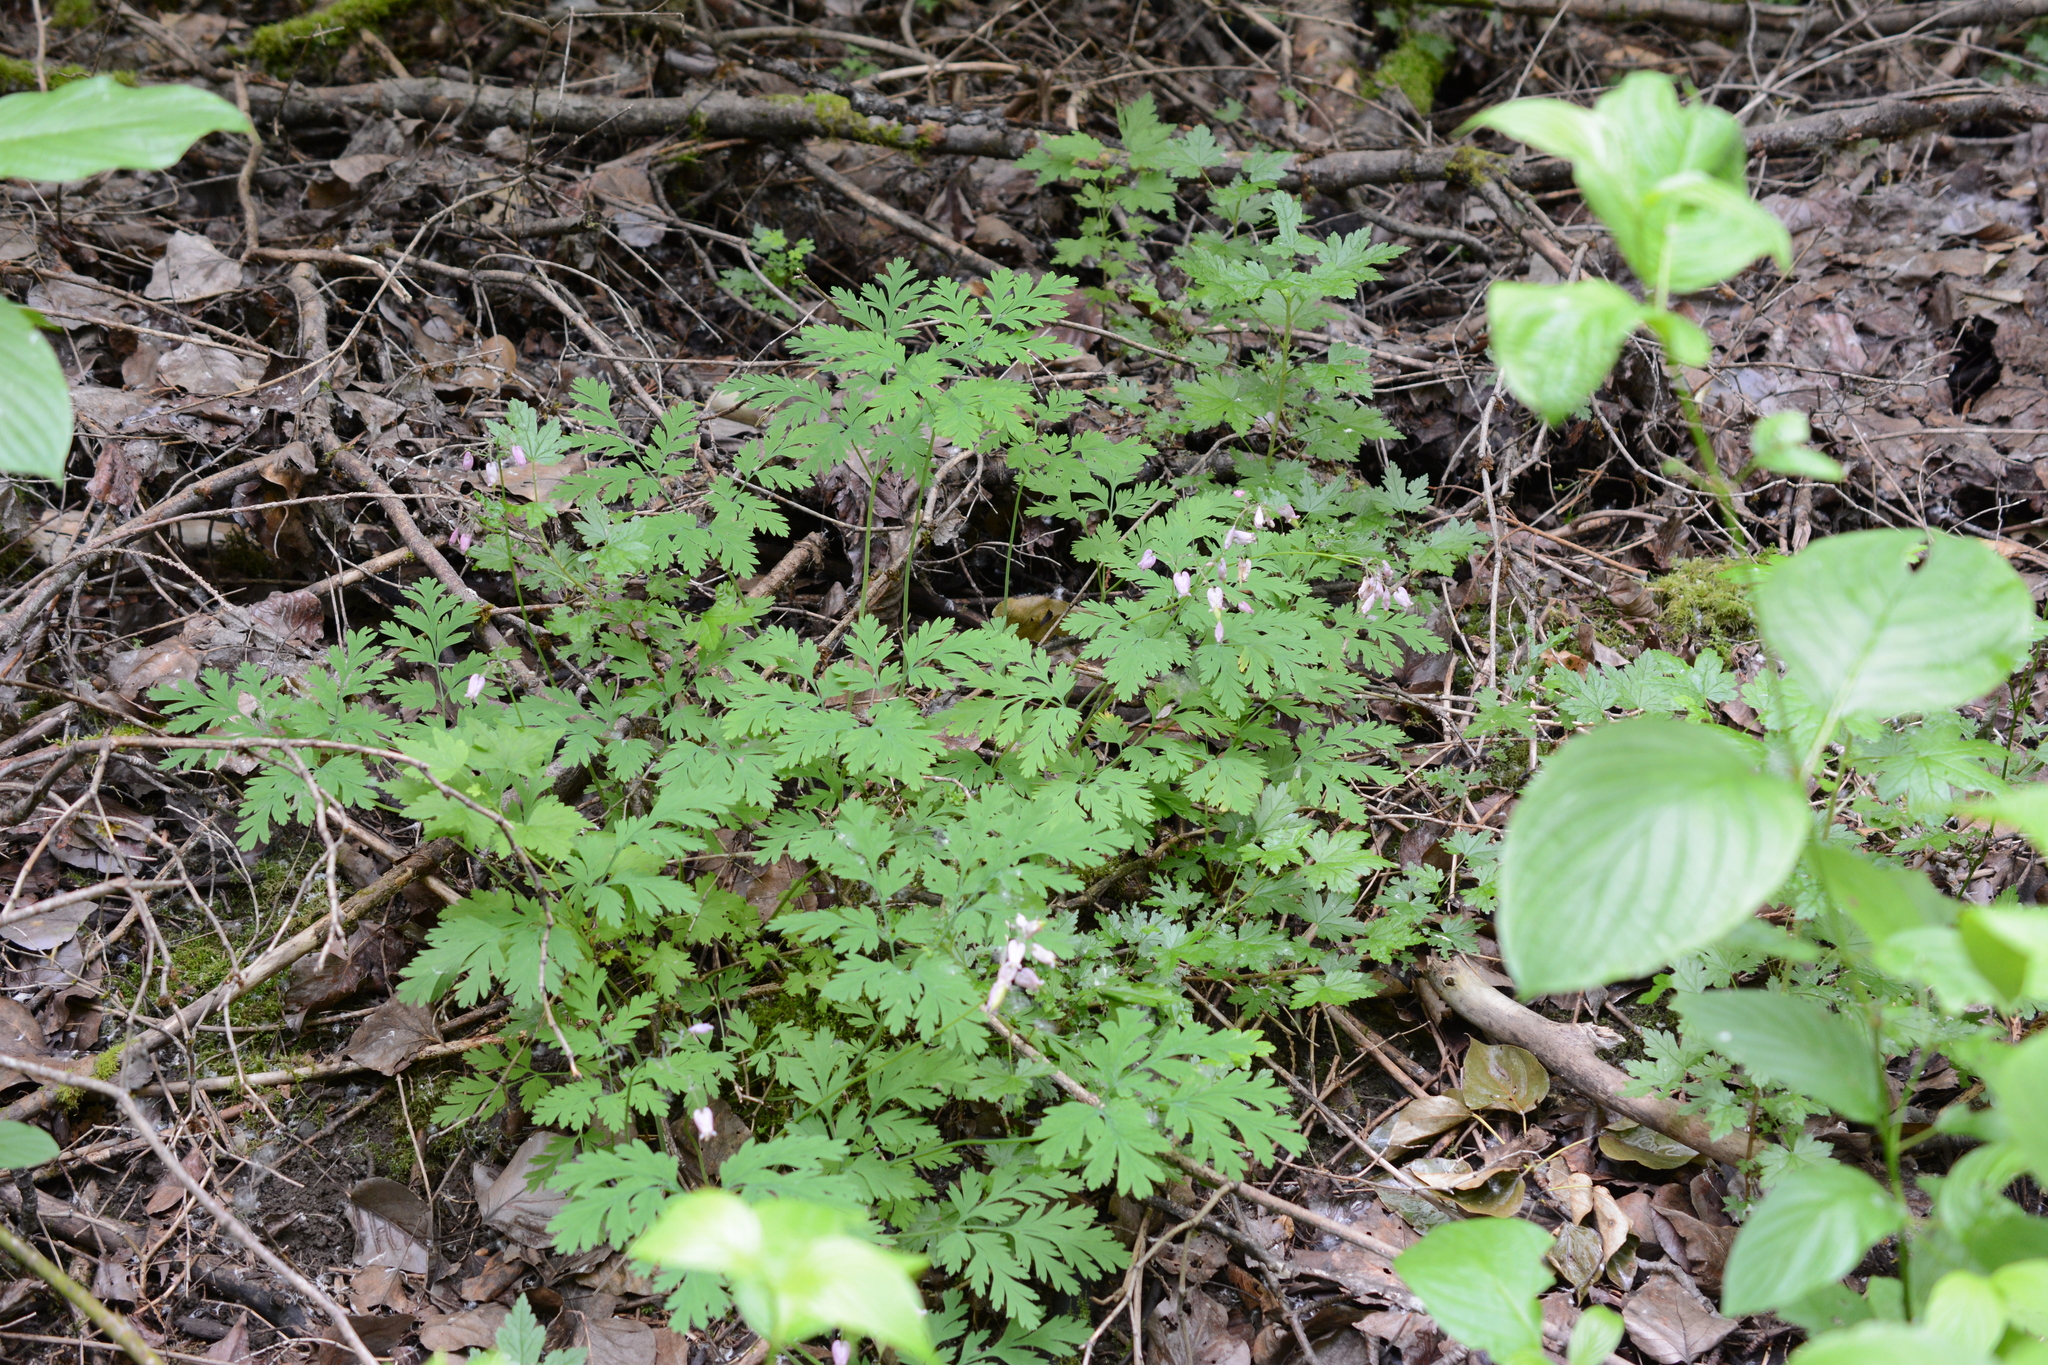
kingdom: Plantae
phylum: Tracheophyta
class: Magnoliopsida
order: Ranunculales
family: Papaveraceae
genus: Dicentra
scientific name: Dicentra formosa
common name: Bleeding-heart
